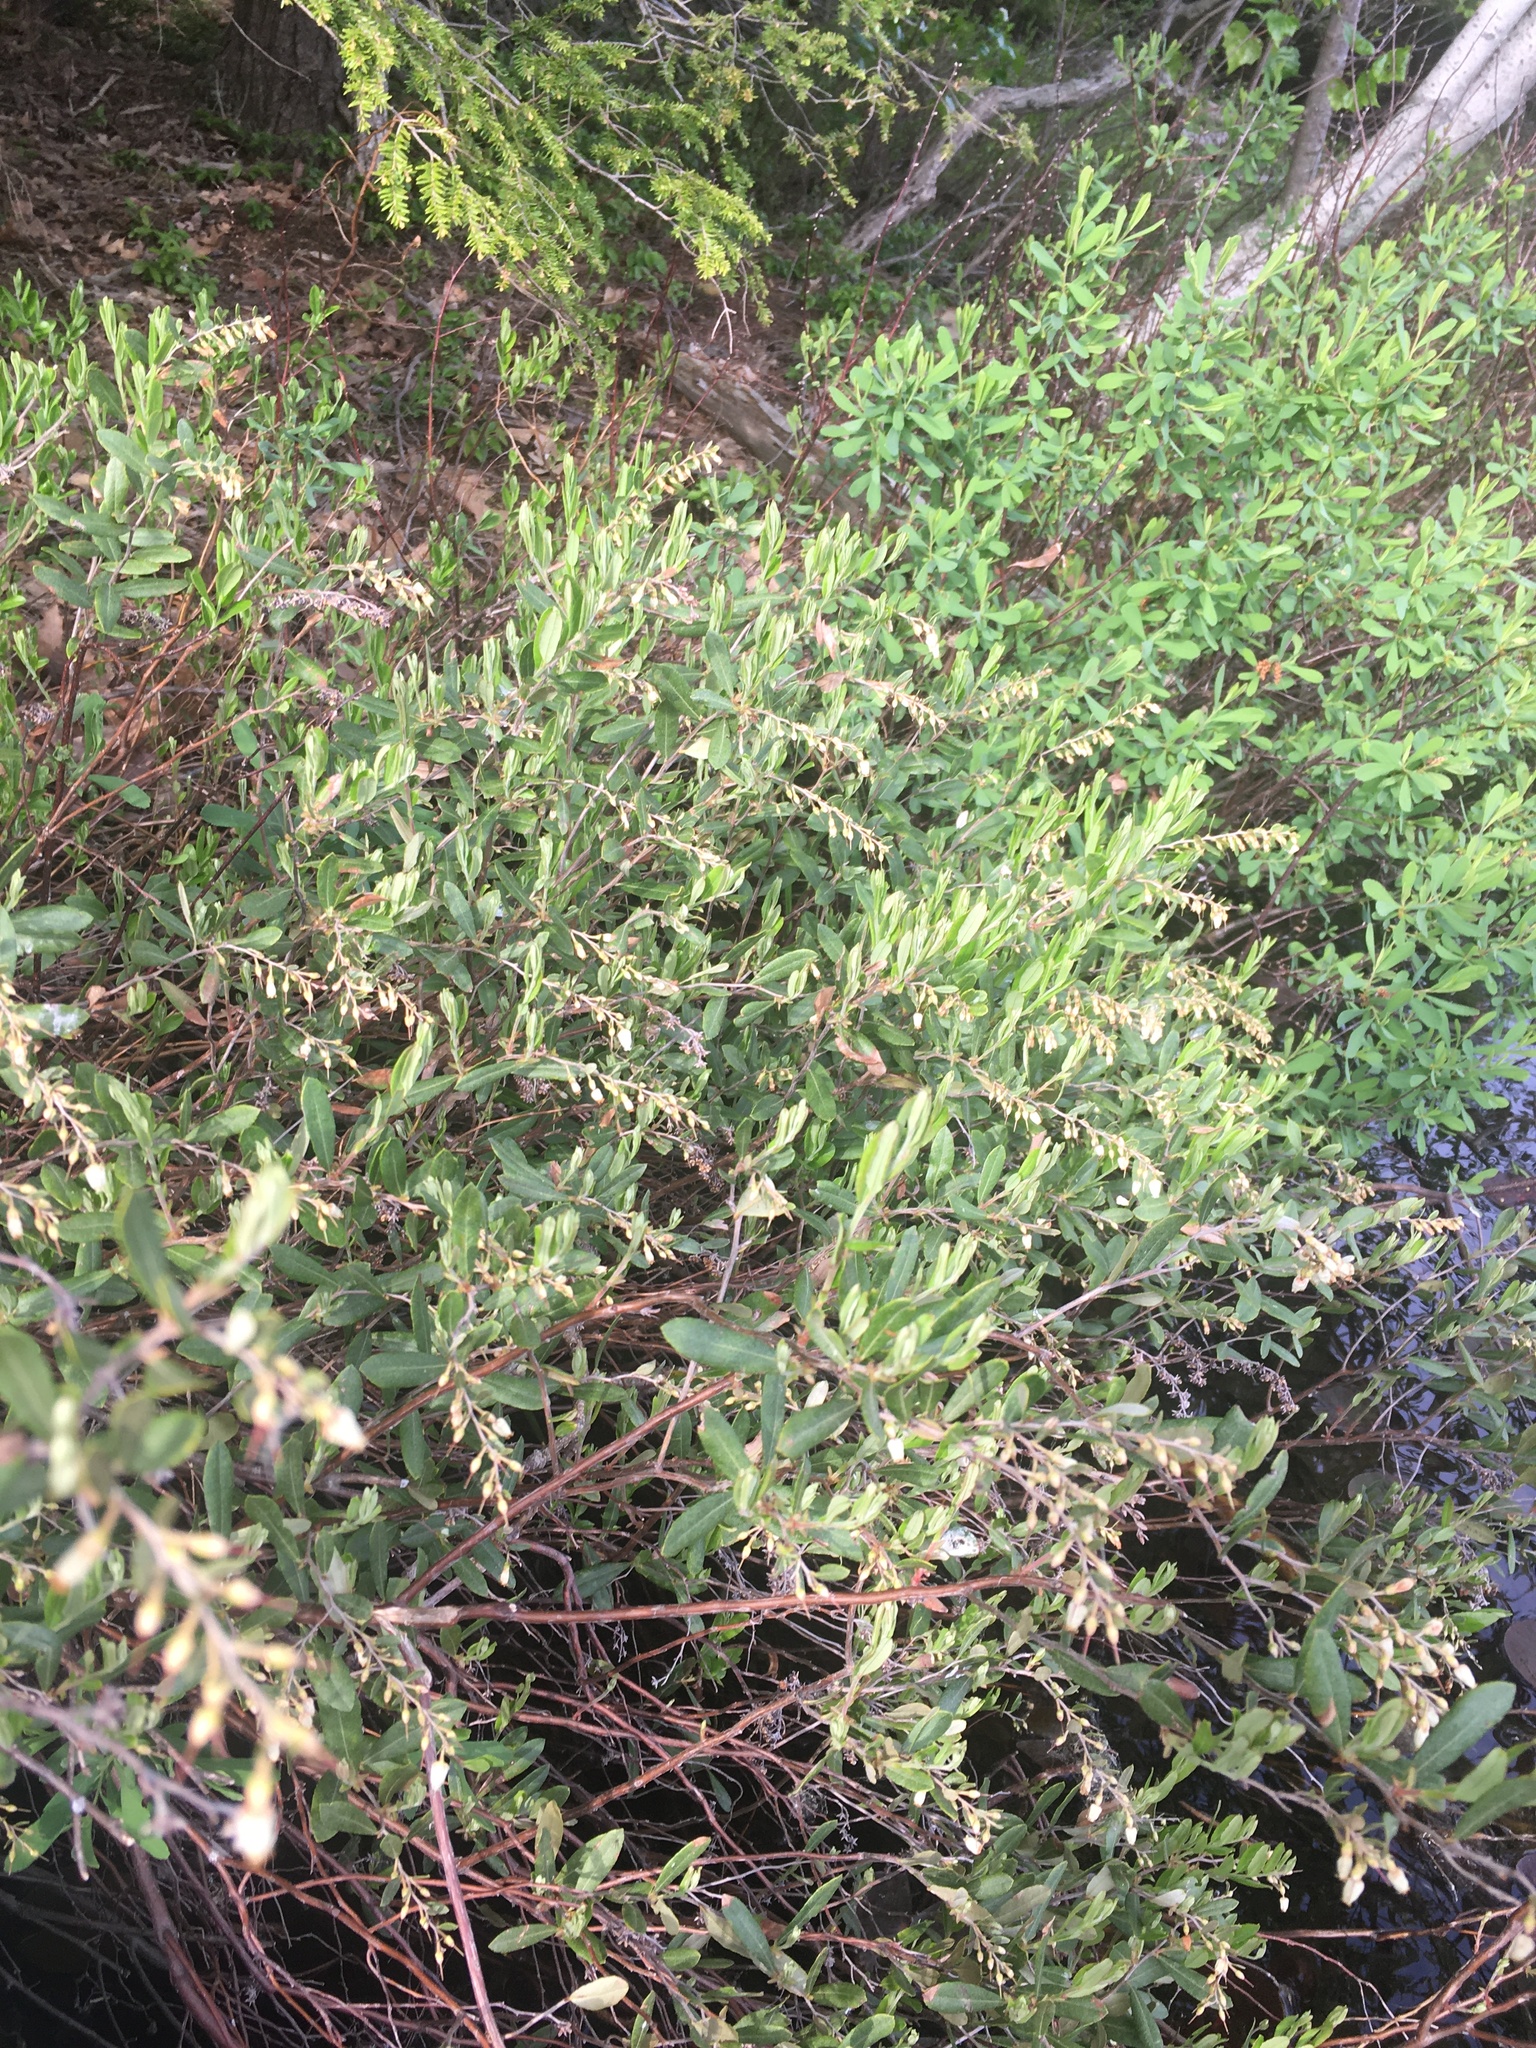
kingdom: Plantae
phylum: Tracheophyta
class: Magnoliopsida
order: Ericales
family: Ericaceae
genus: Chamaedaphne
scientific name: Chamaedaphne calyculata
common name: Leatherleaf
